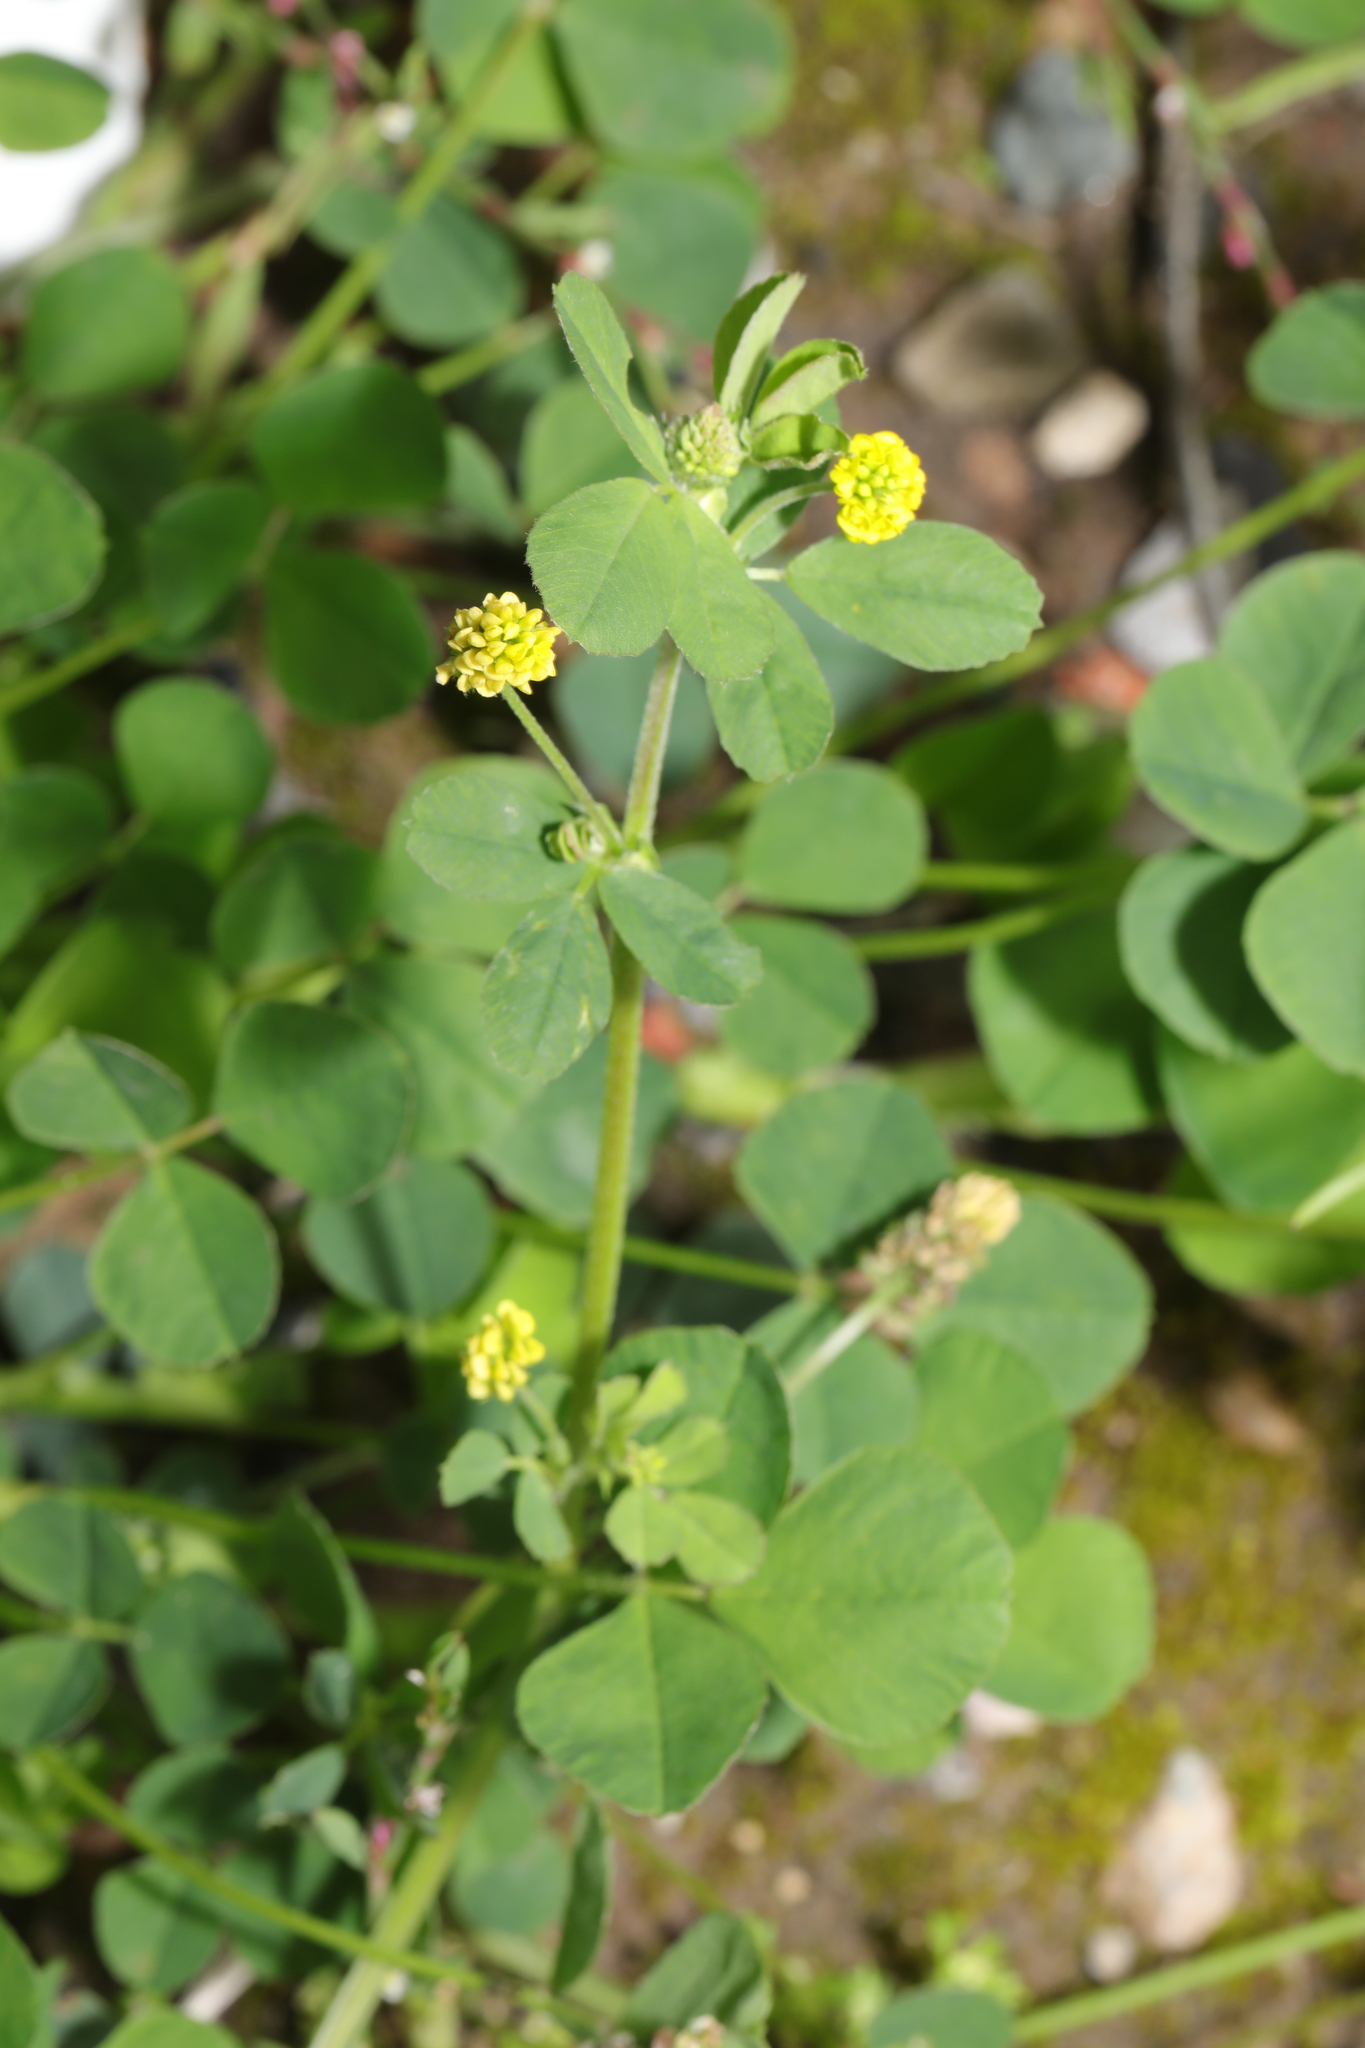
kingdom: Plantae
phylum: Tracheophyta
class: Magnoliopsida
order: Fabales
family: Fabaceae
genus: Medicago
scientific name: Medicago lupulina
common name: Black medick
